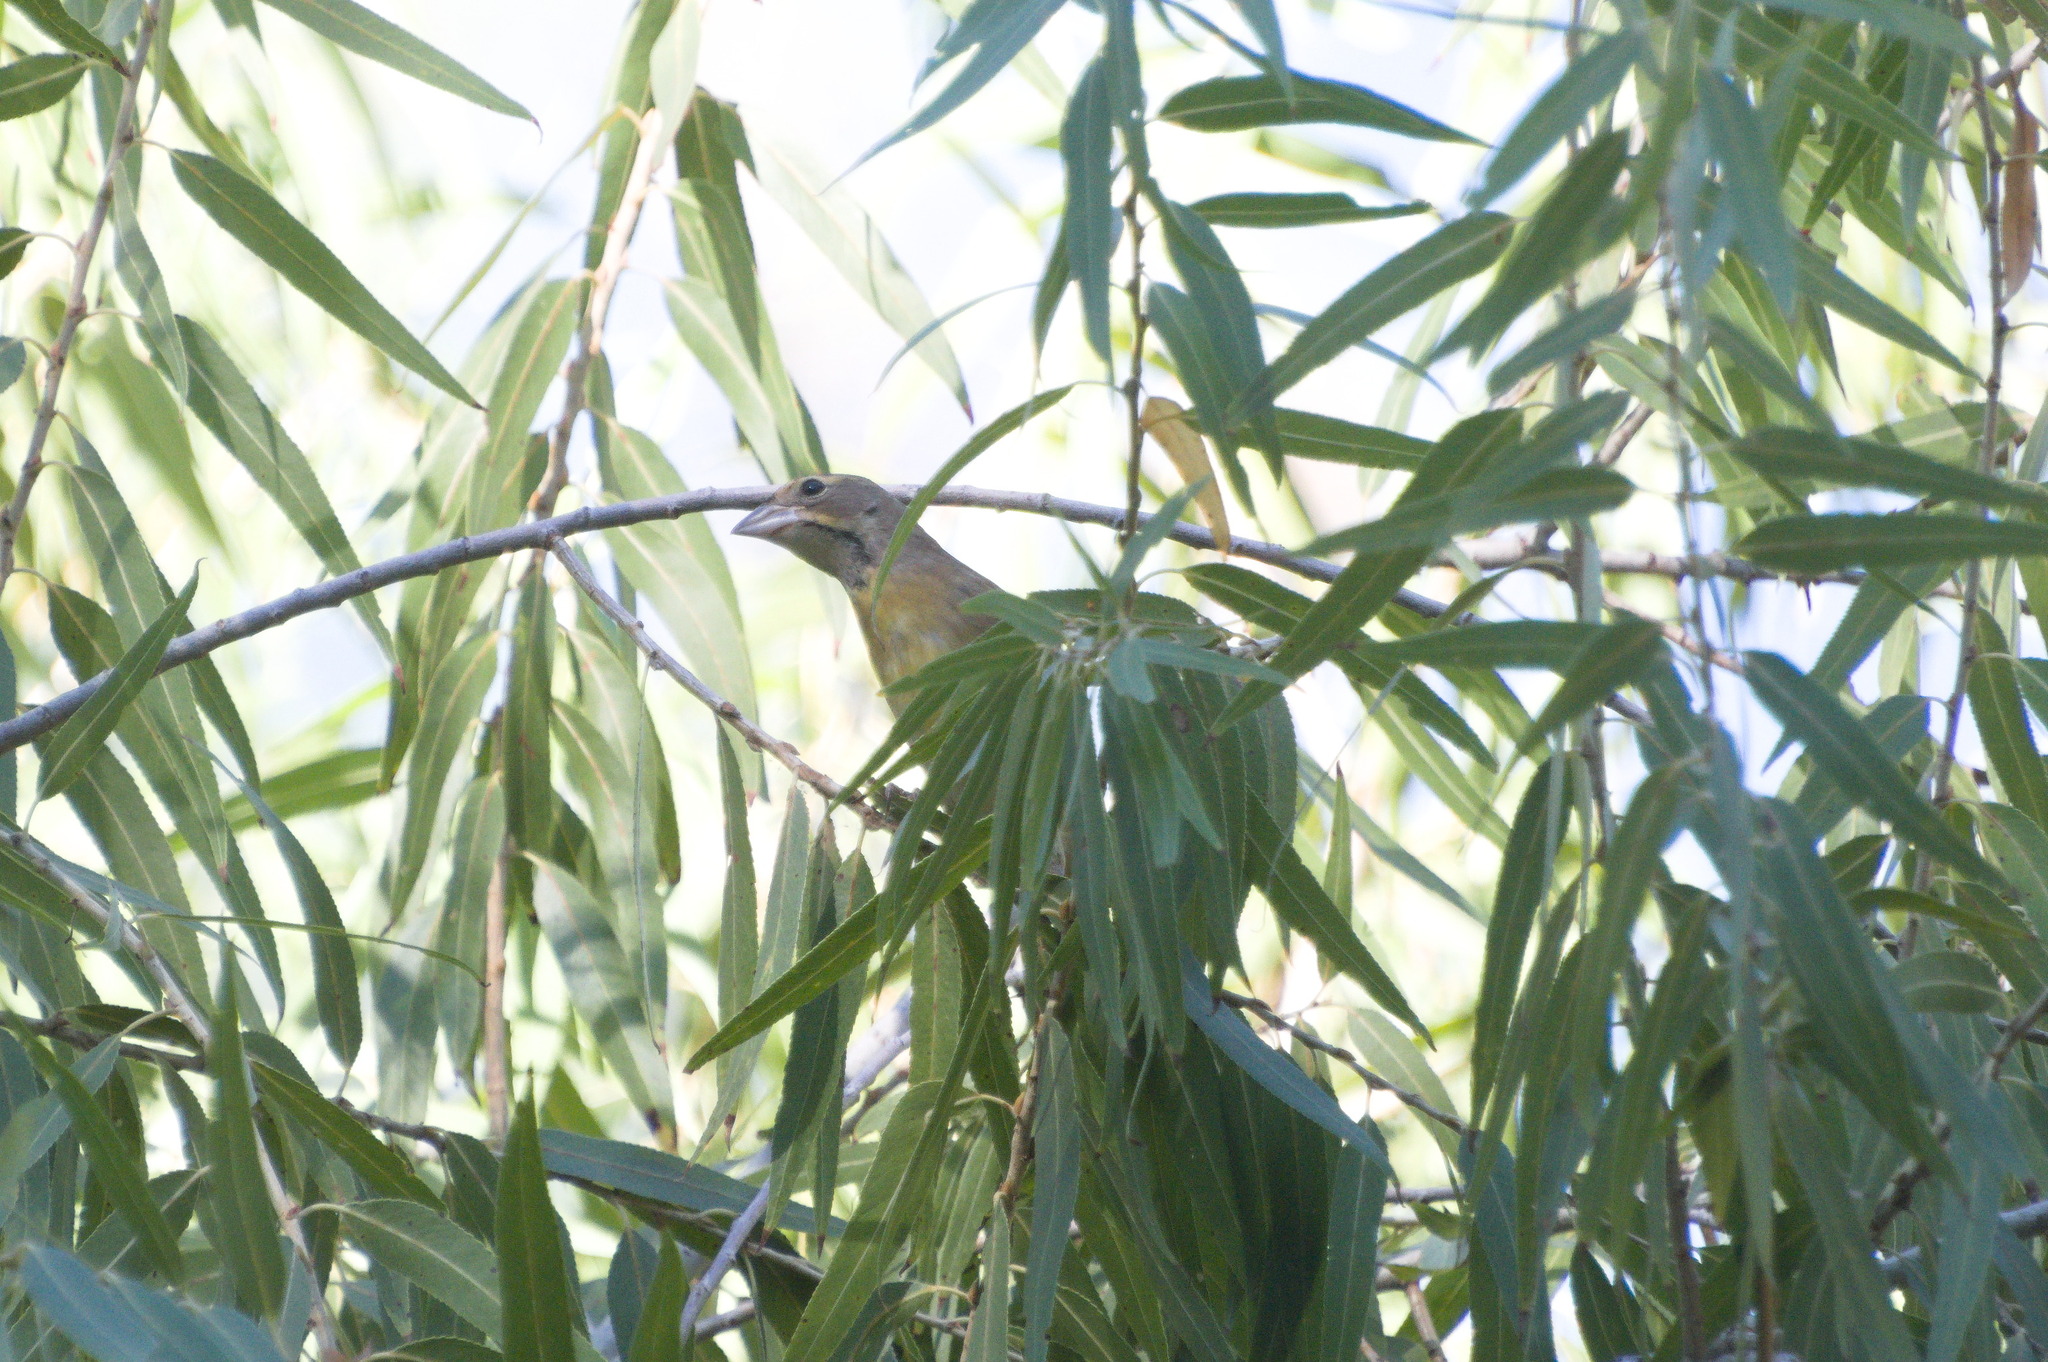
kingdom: Animalia
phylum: Chordata
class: Aves
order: Passeriformes
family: Cardinalidae
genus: Spiza
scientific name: Spiza americana
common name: Dickcissel
